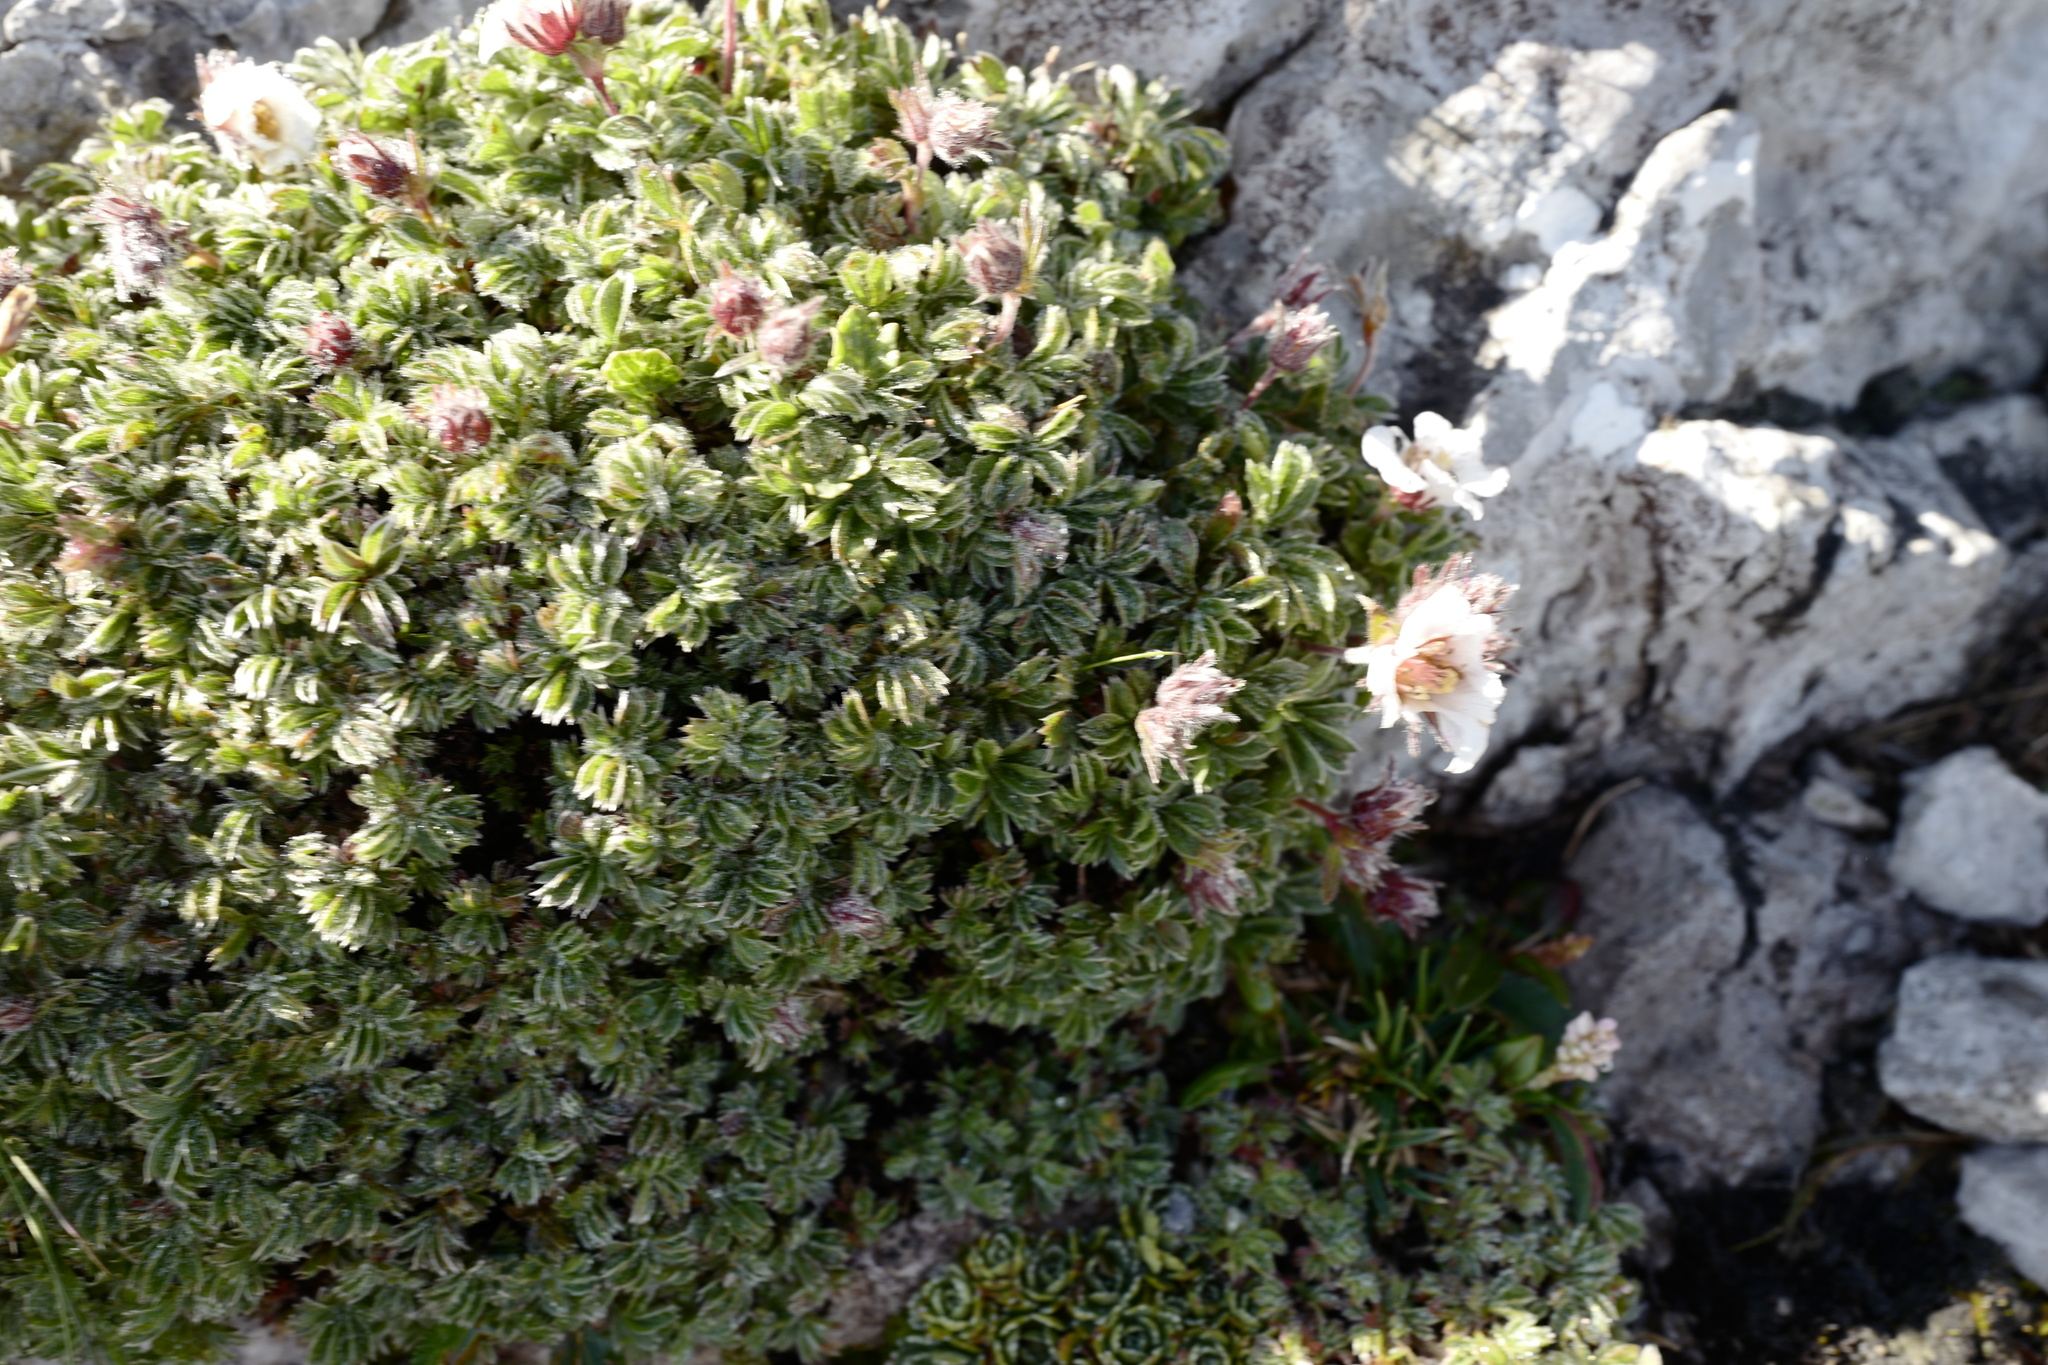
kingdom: Plantae
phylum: Tracheophyta
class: Magnoliopsida
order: Rosales
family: Rosaceae
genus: Potentilla
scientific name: Potentilla clusiana
